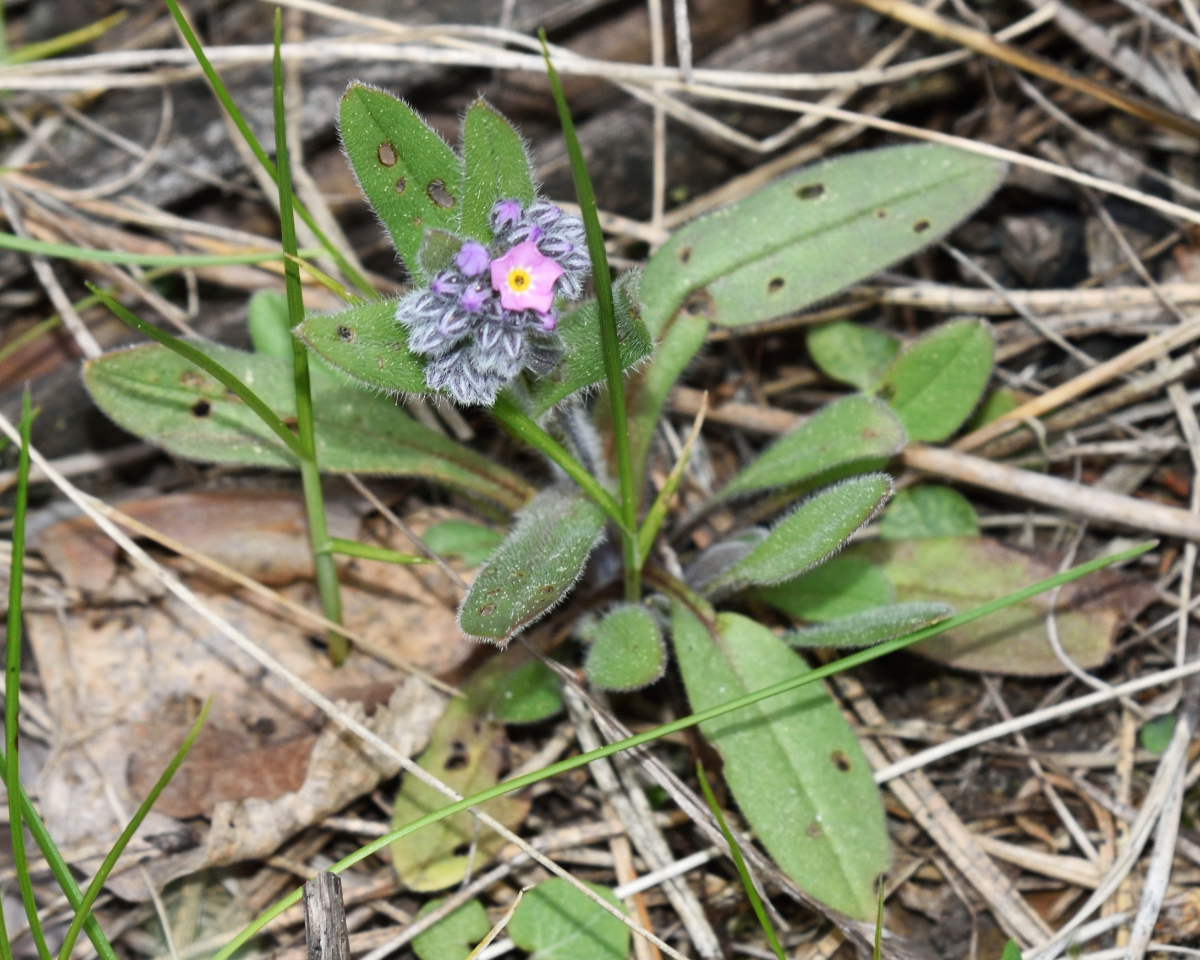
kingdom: Plantae
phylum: Tracheophyta
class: Magnoliopsida
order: Boraginales
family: Boraginaceae
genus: Myosotis
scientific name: Myosotis sylvatica
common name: Wood forget-me-not
